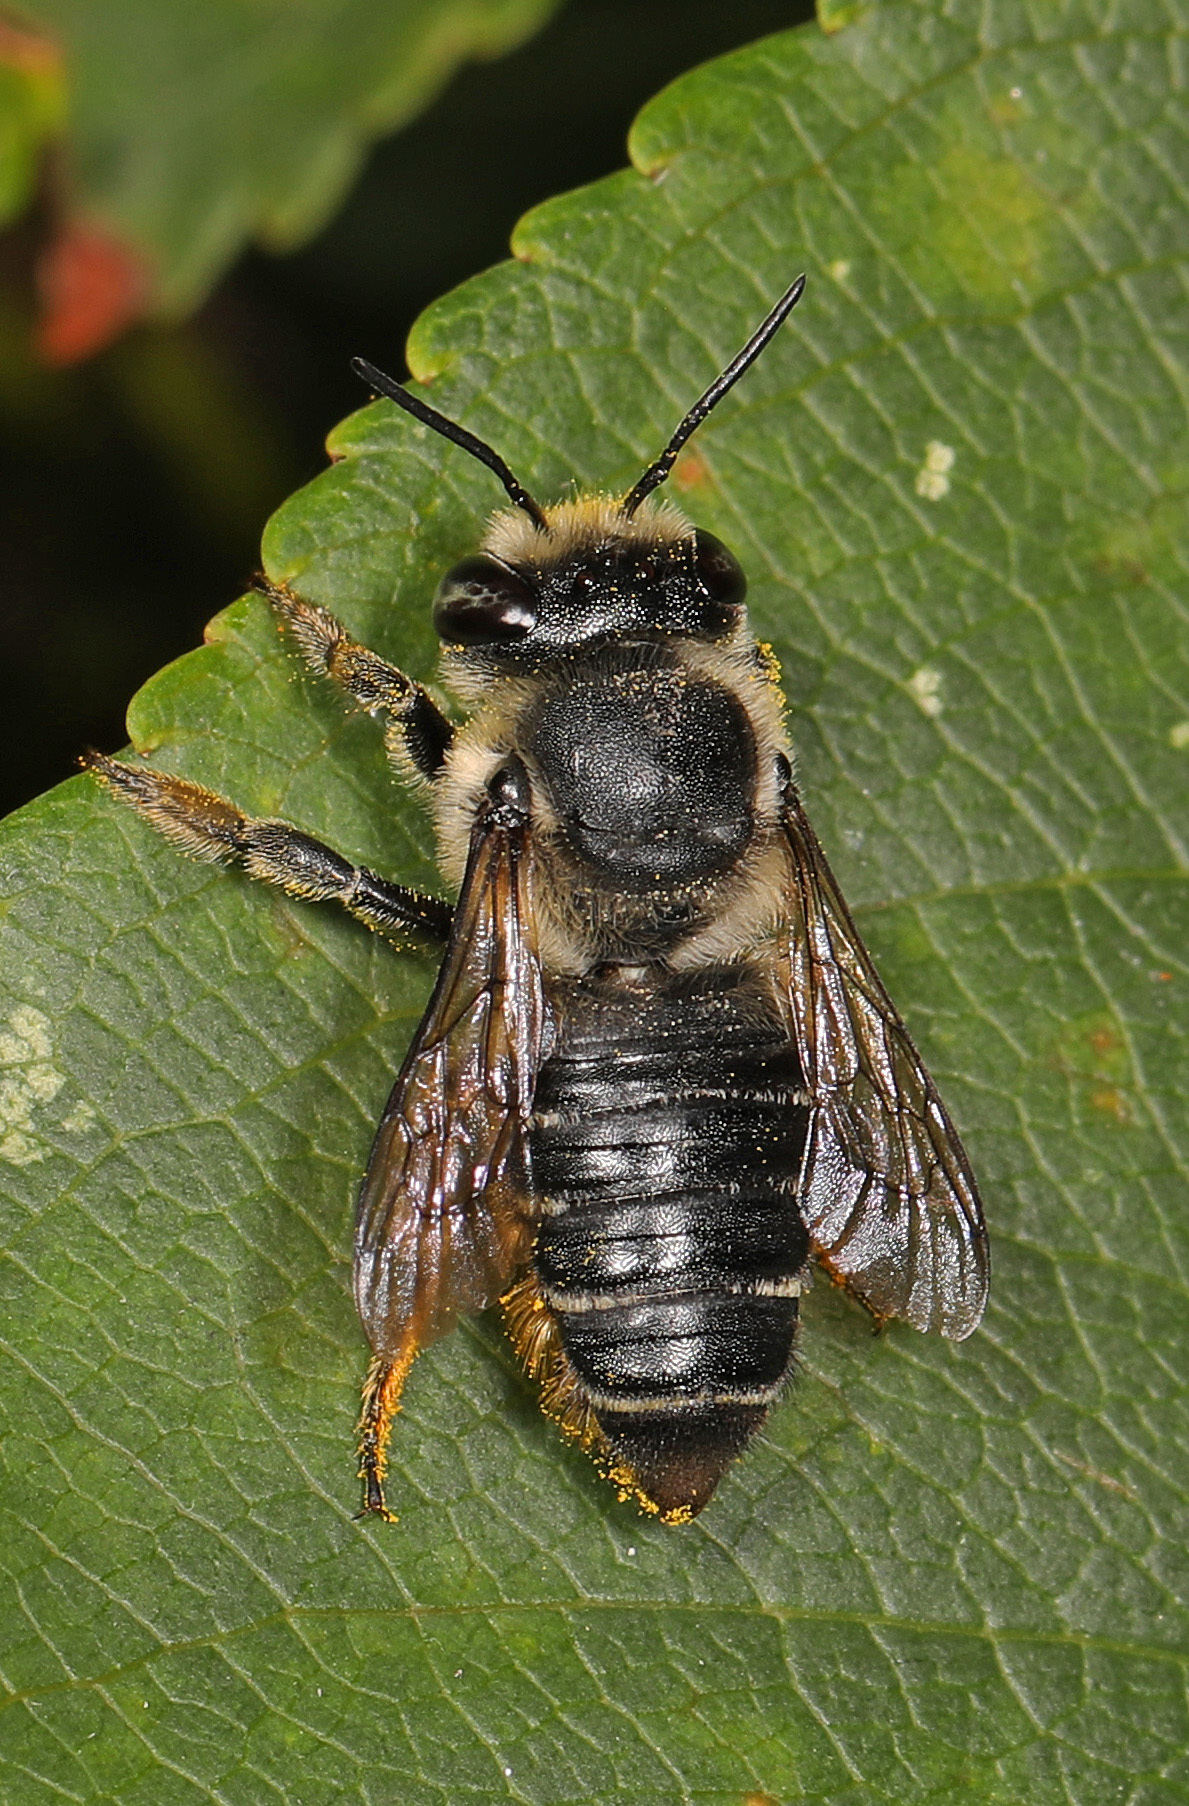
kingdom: Animalia
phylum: Arthropoda
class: Insecta
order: Hymenoptera
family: Megachilidae
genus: Megachile
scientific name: Megachile mendica
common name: Flat-tailed leafcutter
